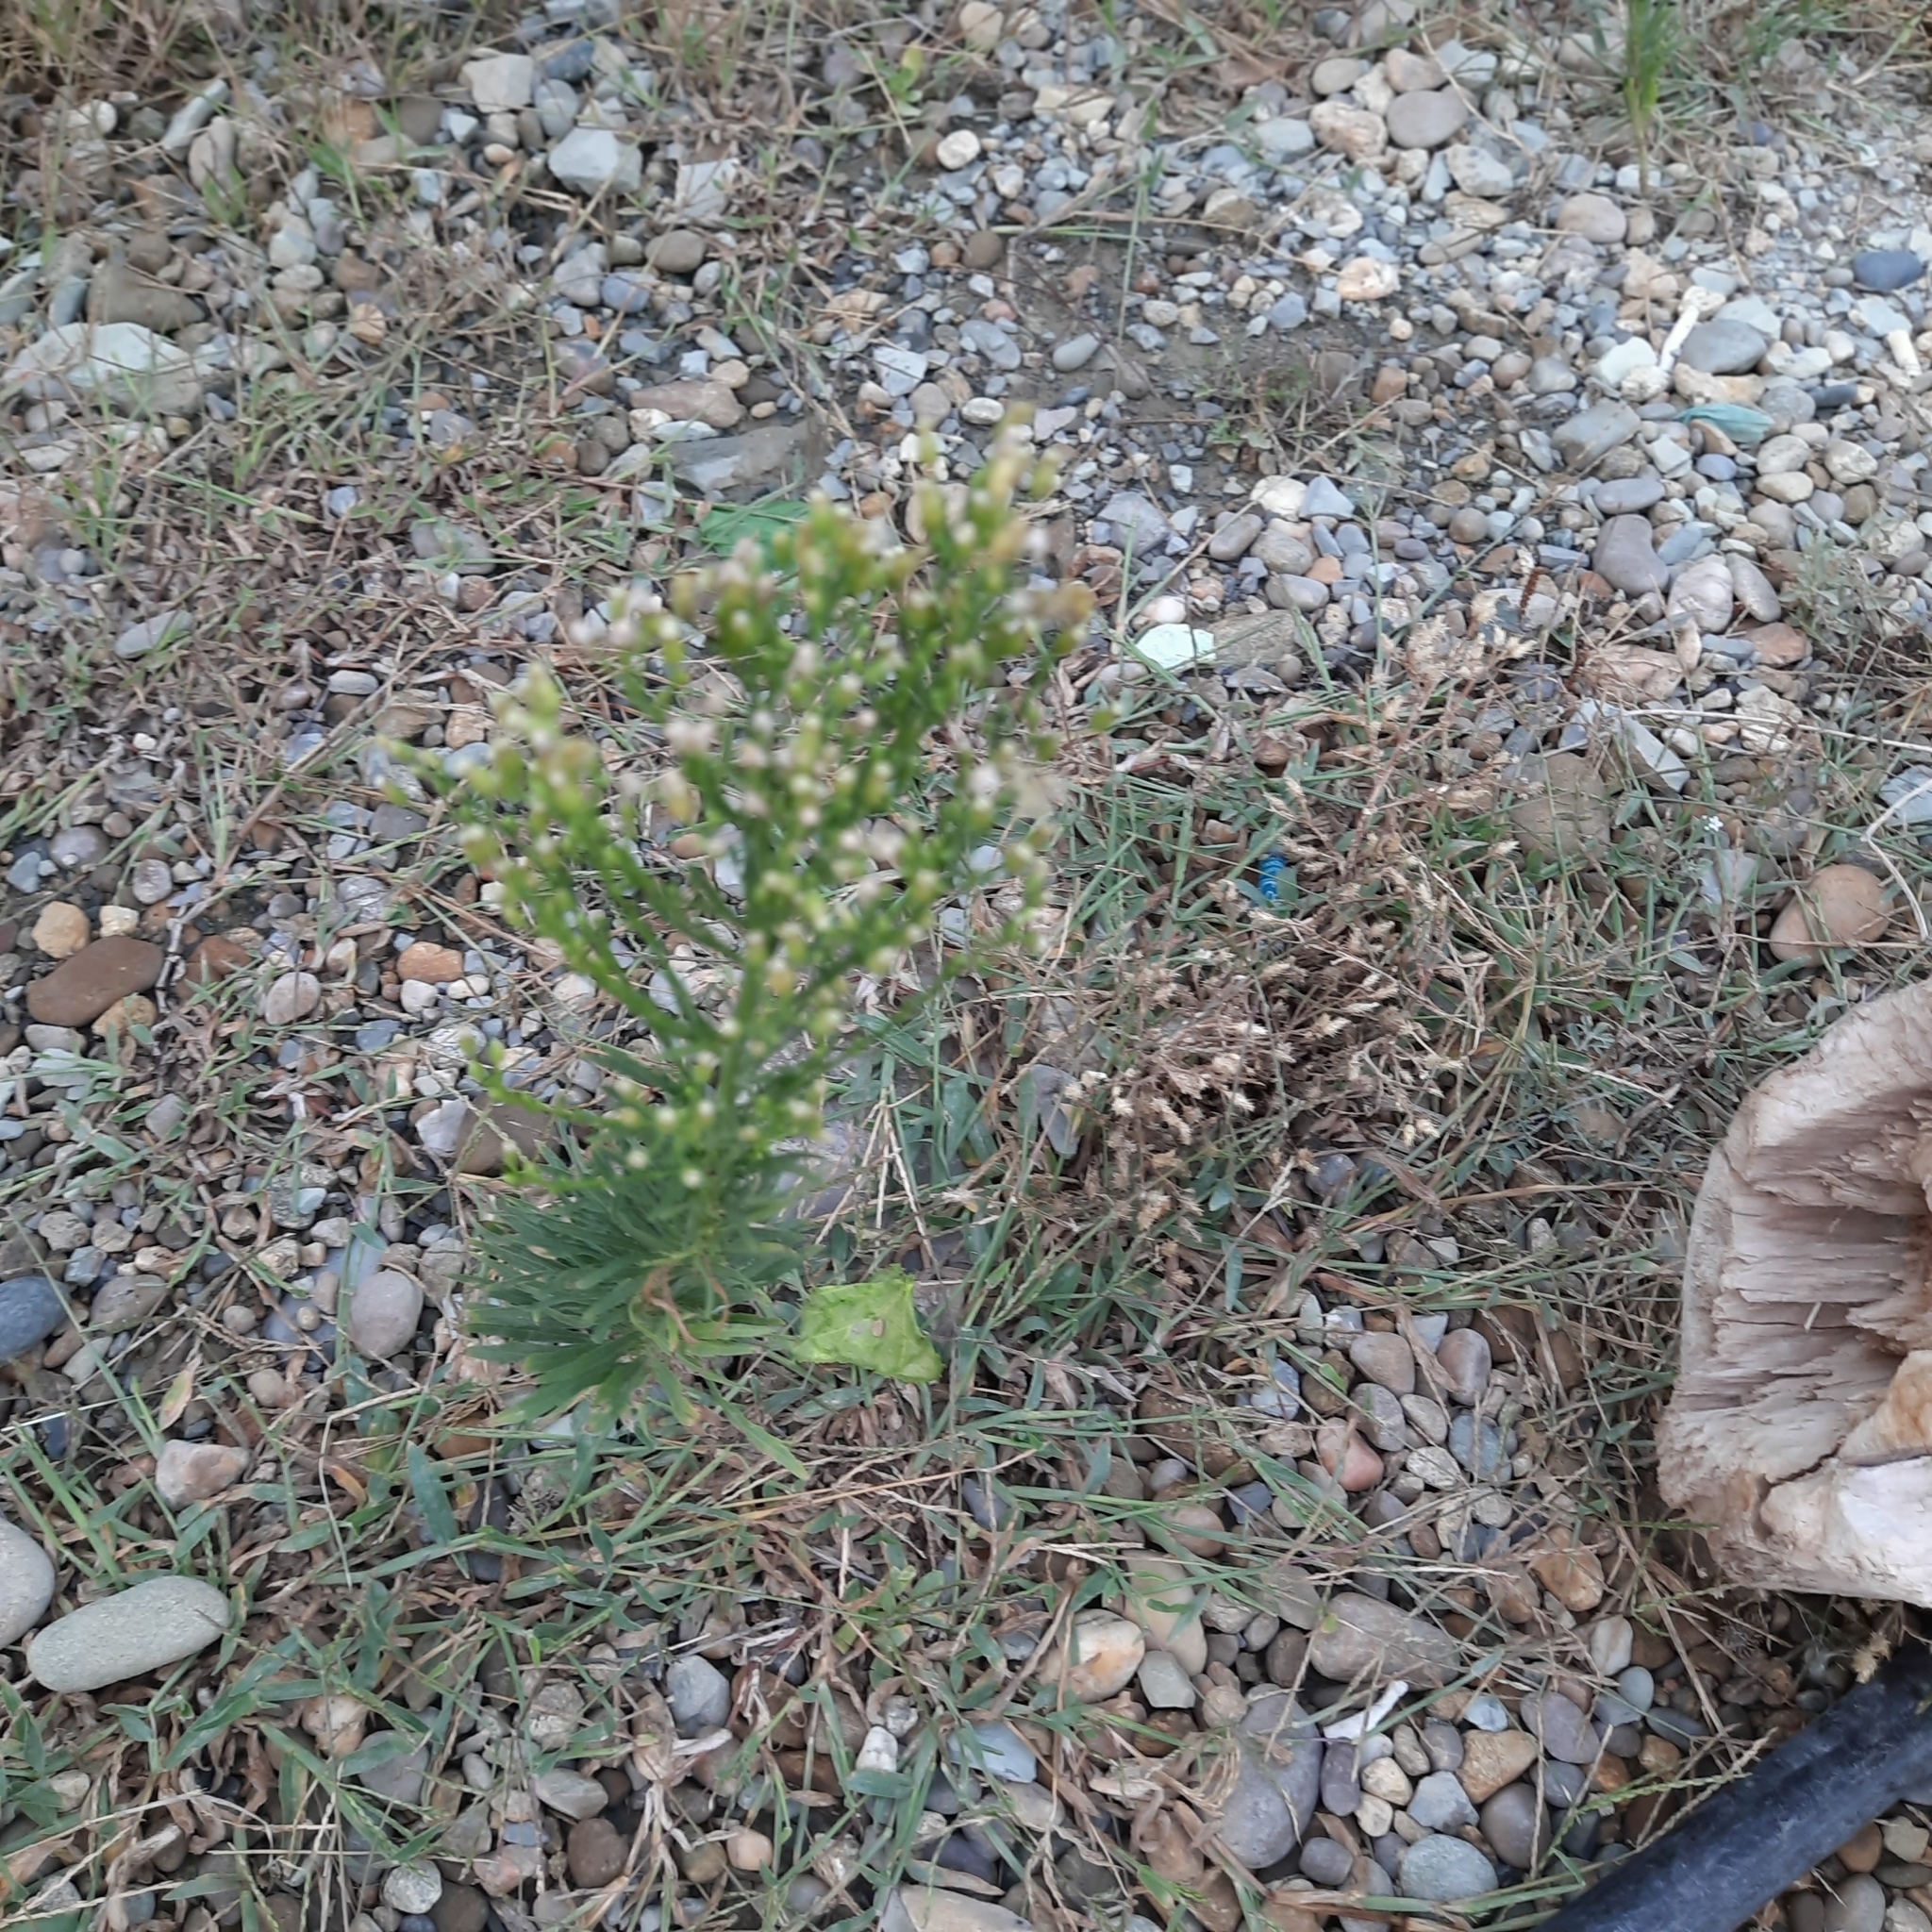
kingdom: Plantae
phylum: Tracheophyta
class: Magnoliopsida
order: Asterales
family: Asteraceae
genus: Erigeron
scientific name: Erigeron canadensis
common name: Canadian fleabane
